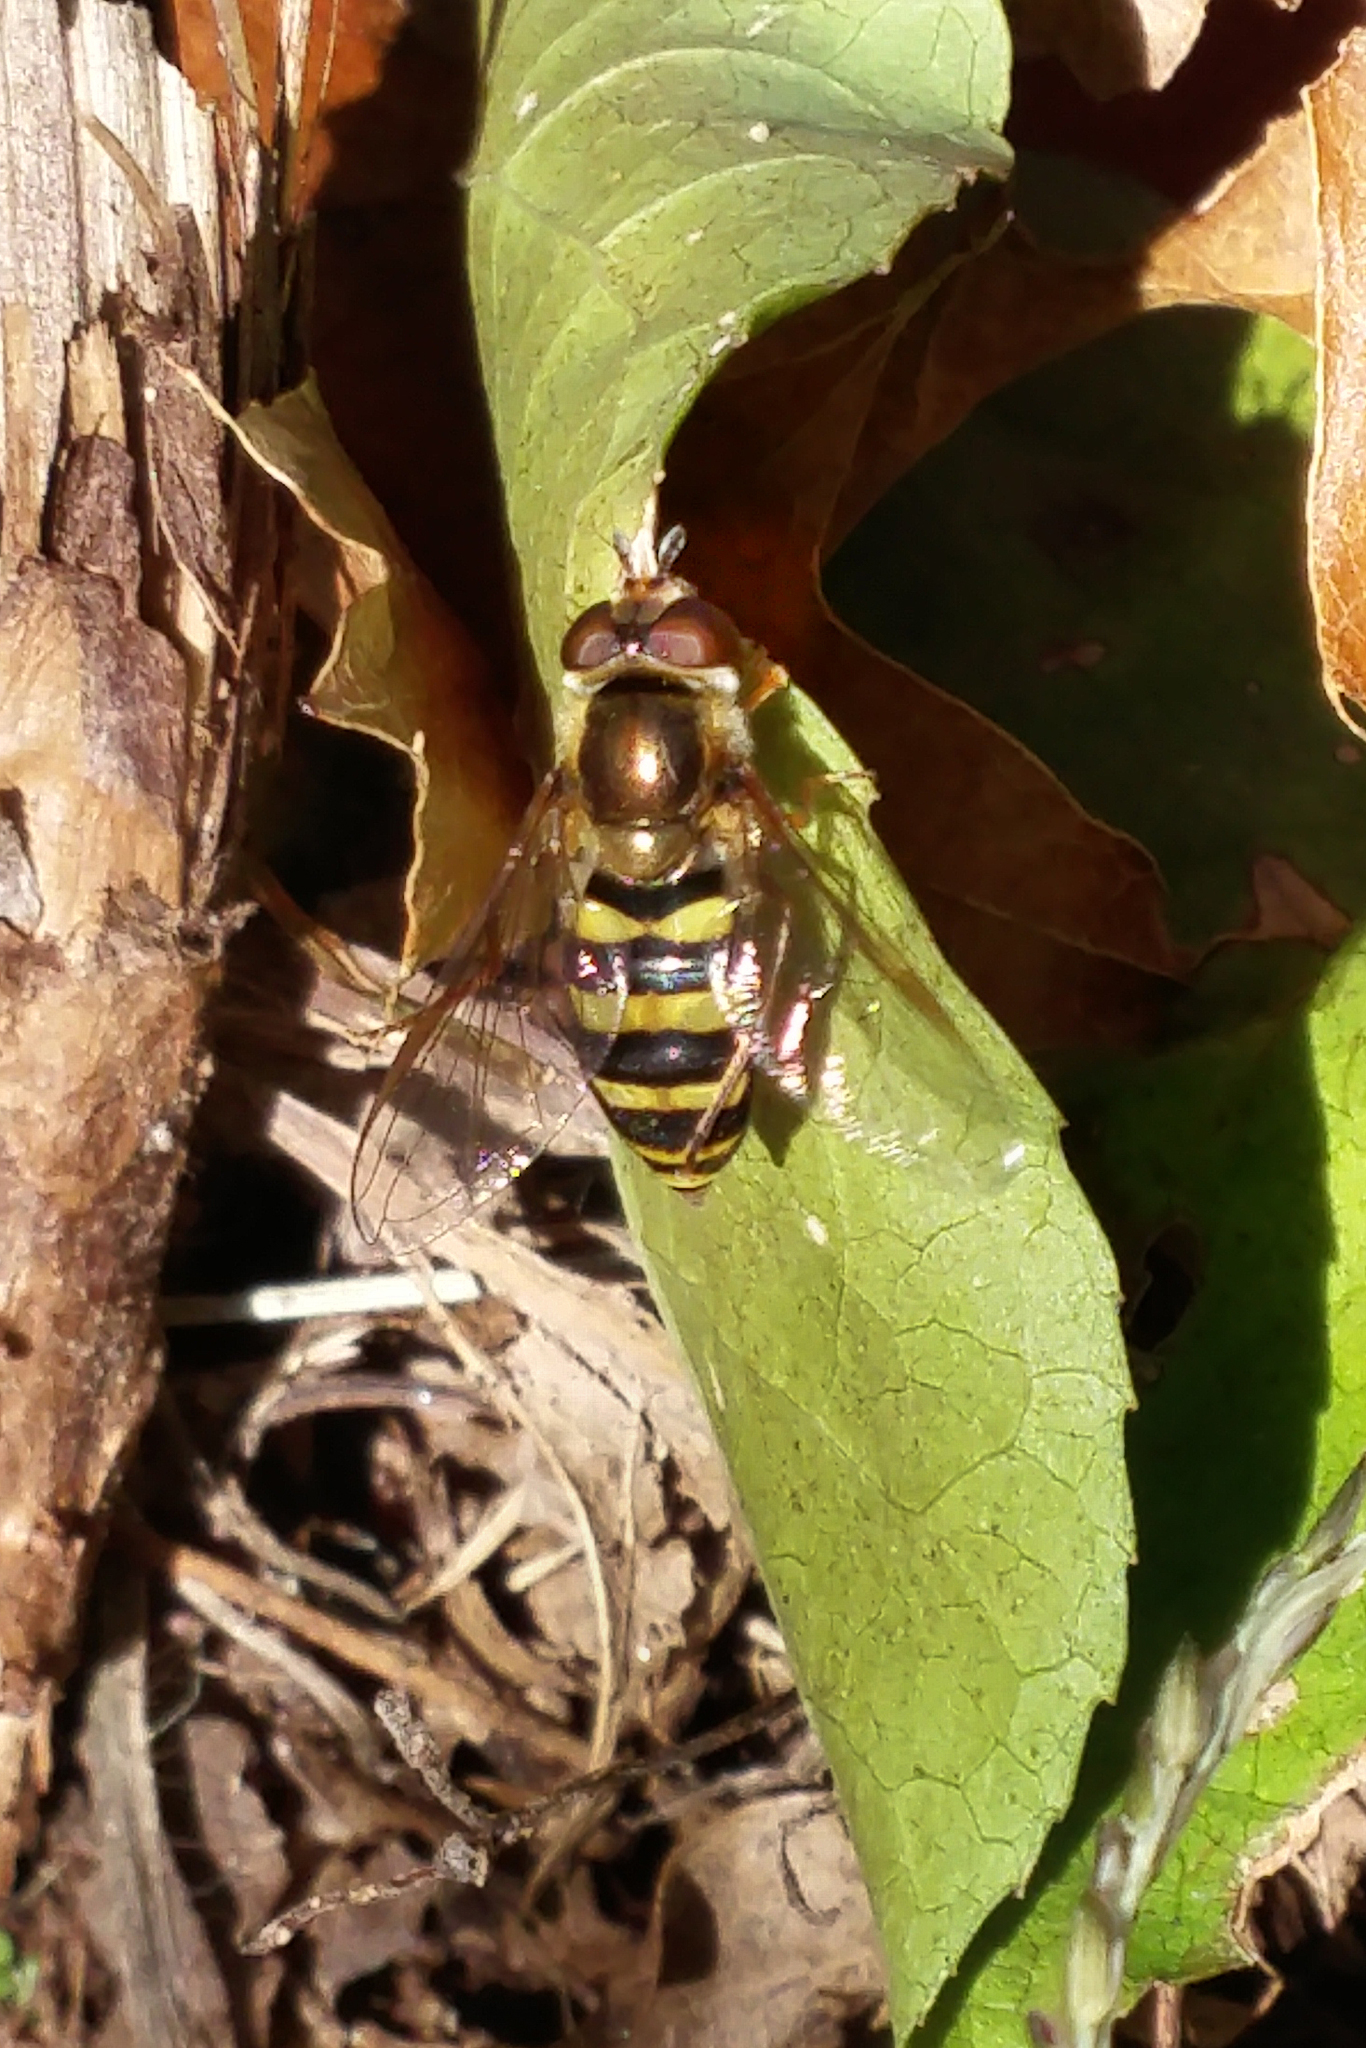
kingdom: Animalia
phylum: Arthropoda
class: Insecta
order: Diptera
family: Syrphidae
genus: Eupeodes
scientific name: Eupeodes
